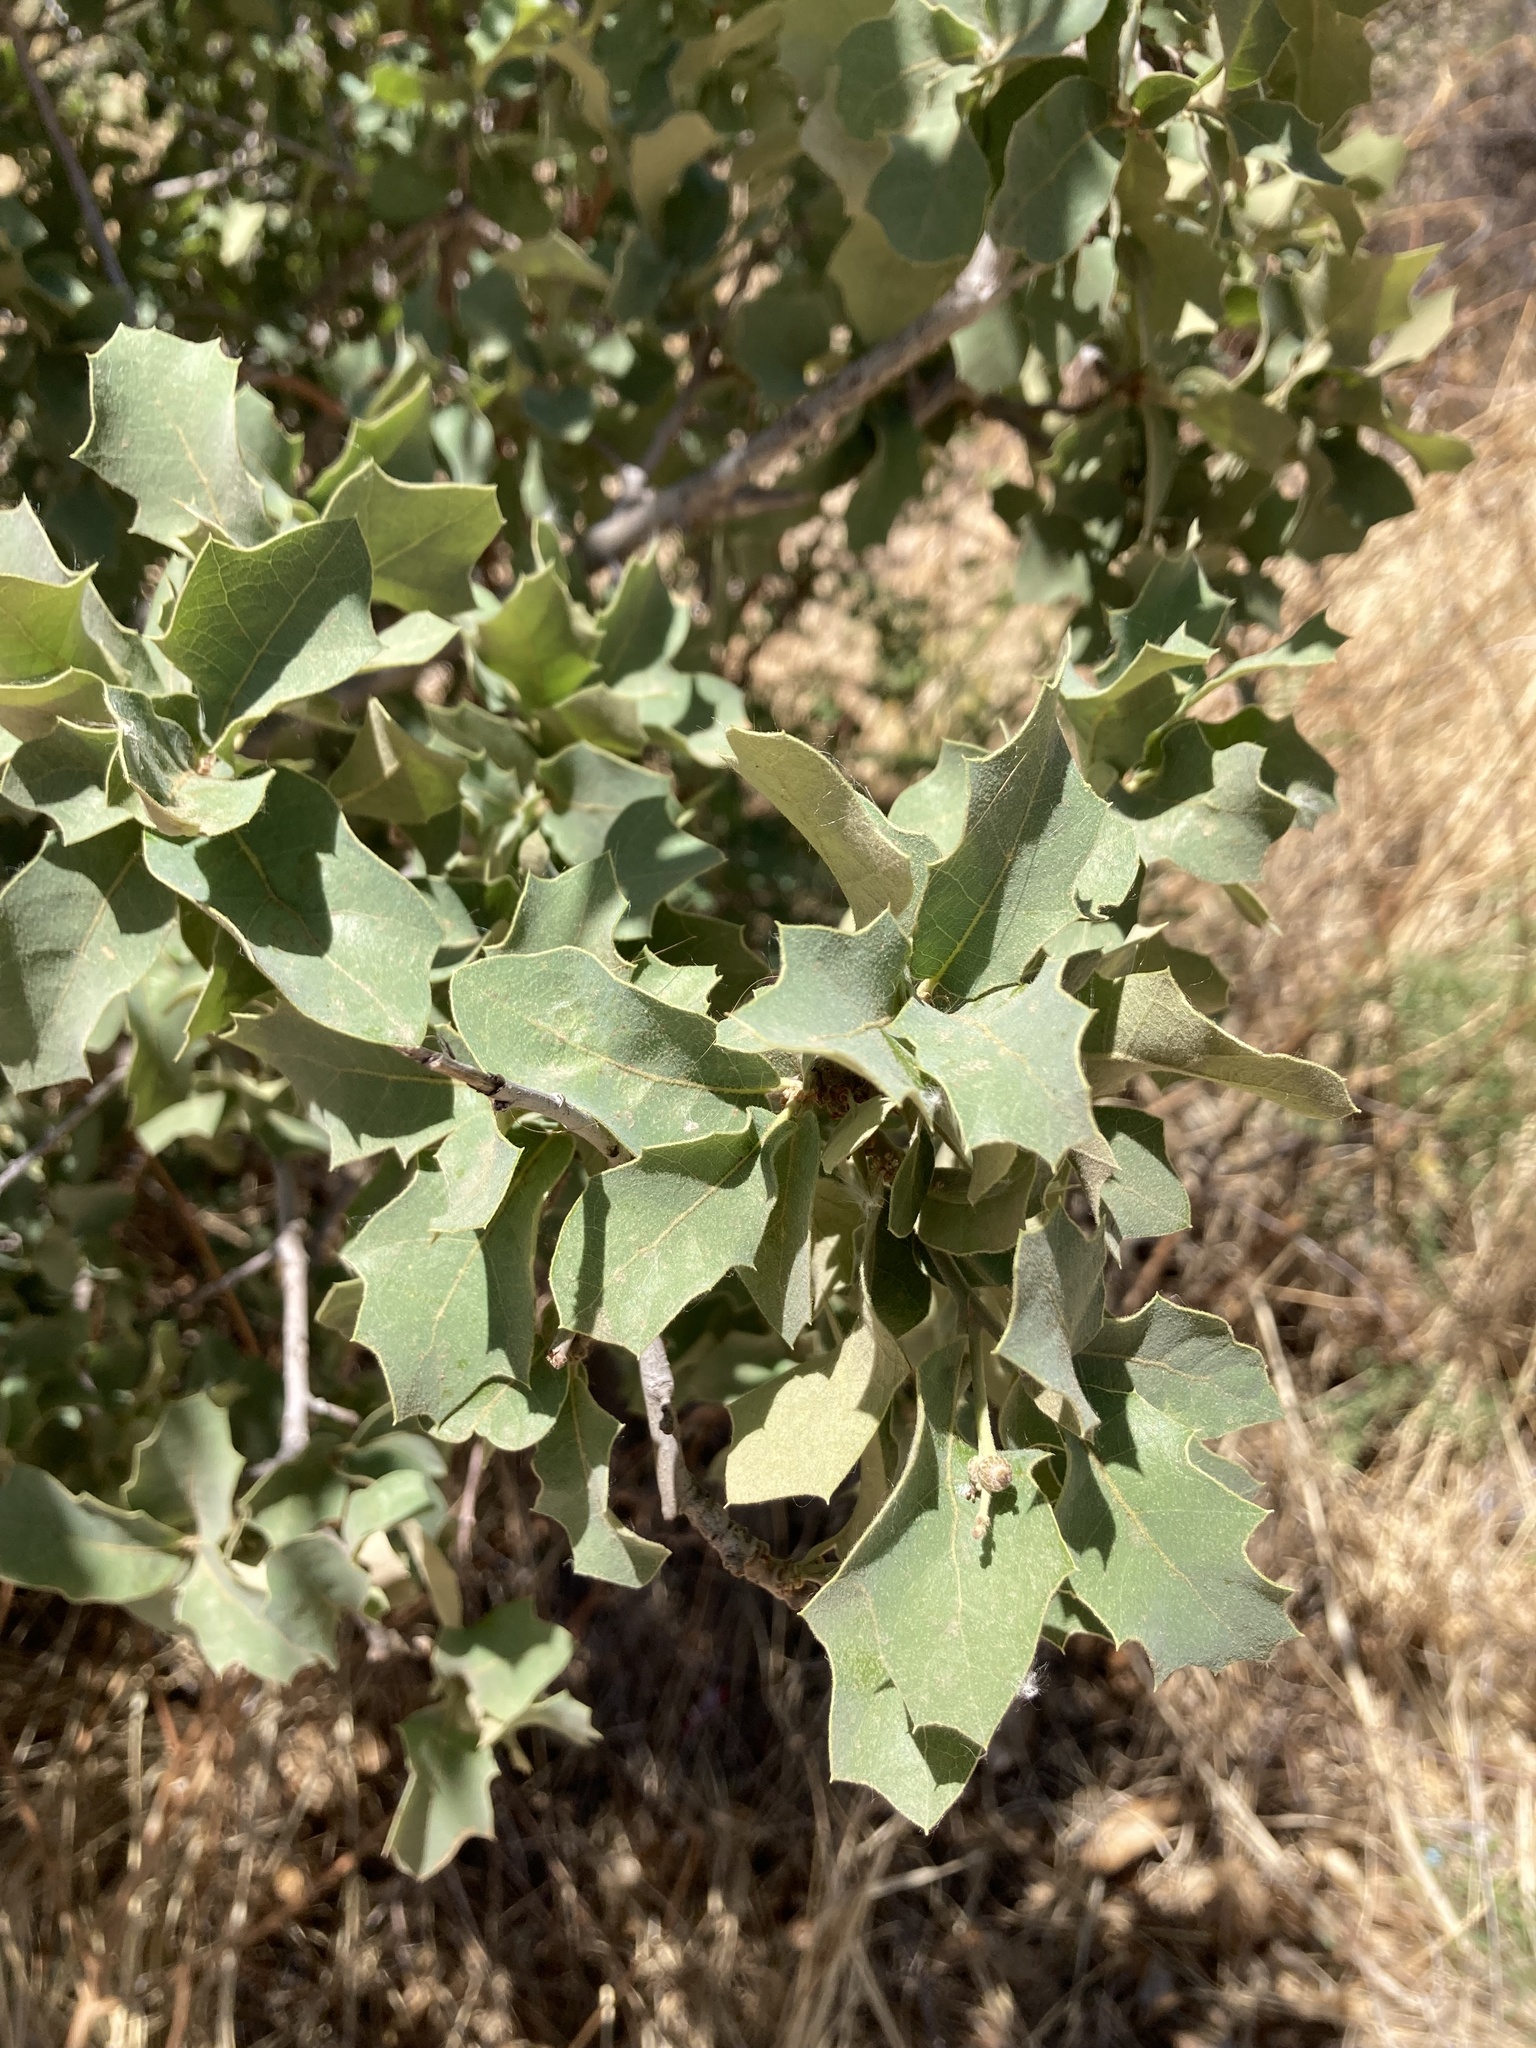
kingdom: Plantae
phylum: Tracheophyta
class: Magnoliopsida
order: Fagales
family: Fagaceae
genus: Quercus
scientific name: Quercus turbinella
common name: Sonoran scrub oak
